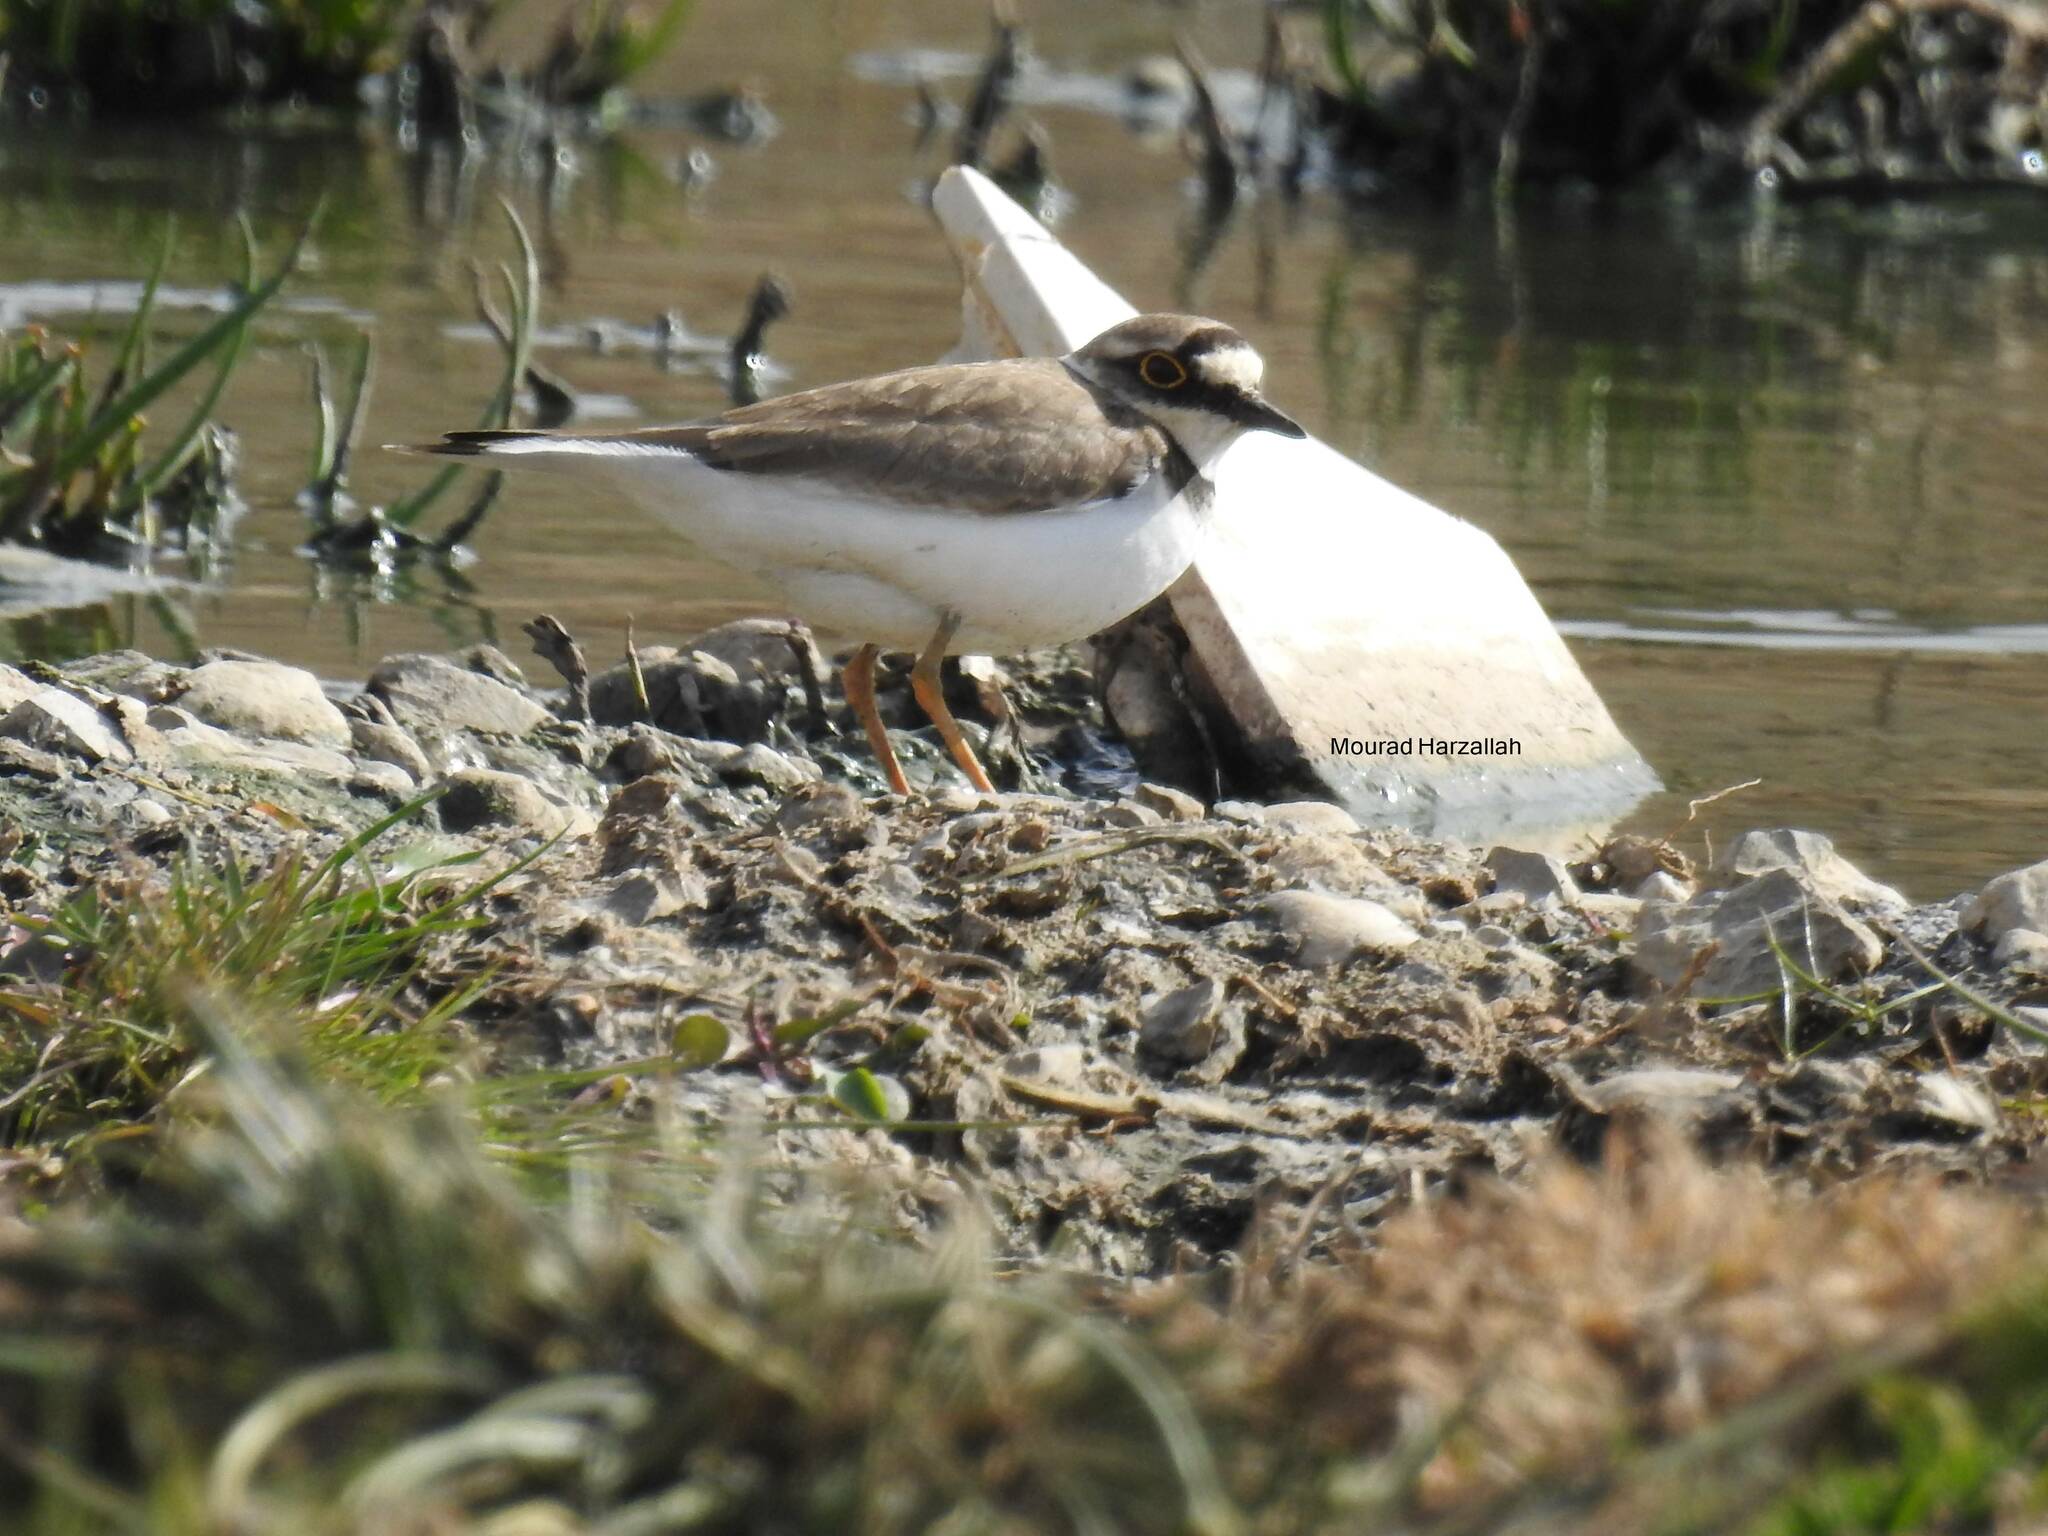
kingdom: Animalia
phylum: Chordata
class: Aves
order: Charadriiformes
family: Charadriidae
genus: Charadrius
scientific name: Charadrius dubius
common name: Little ringed plover
